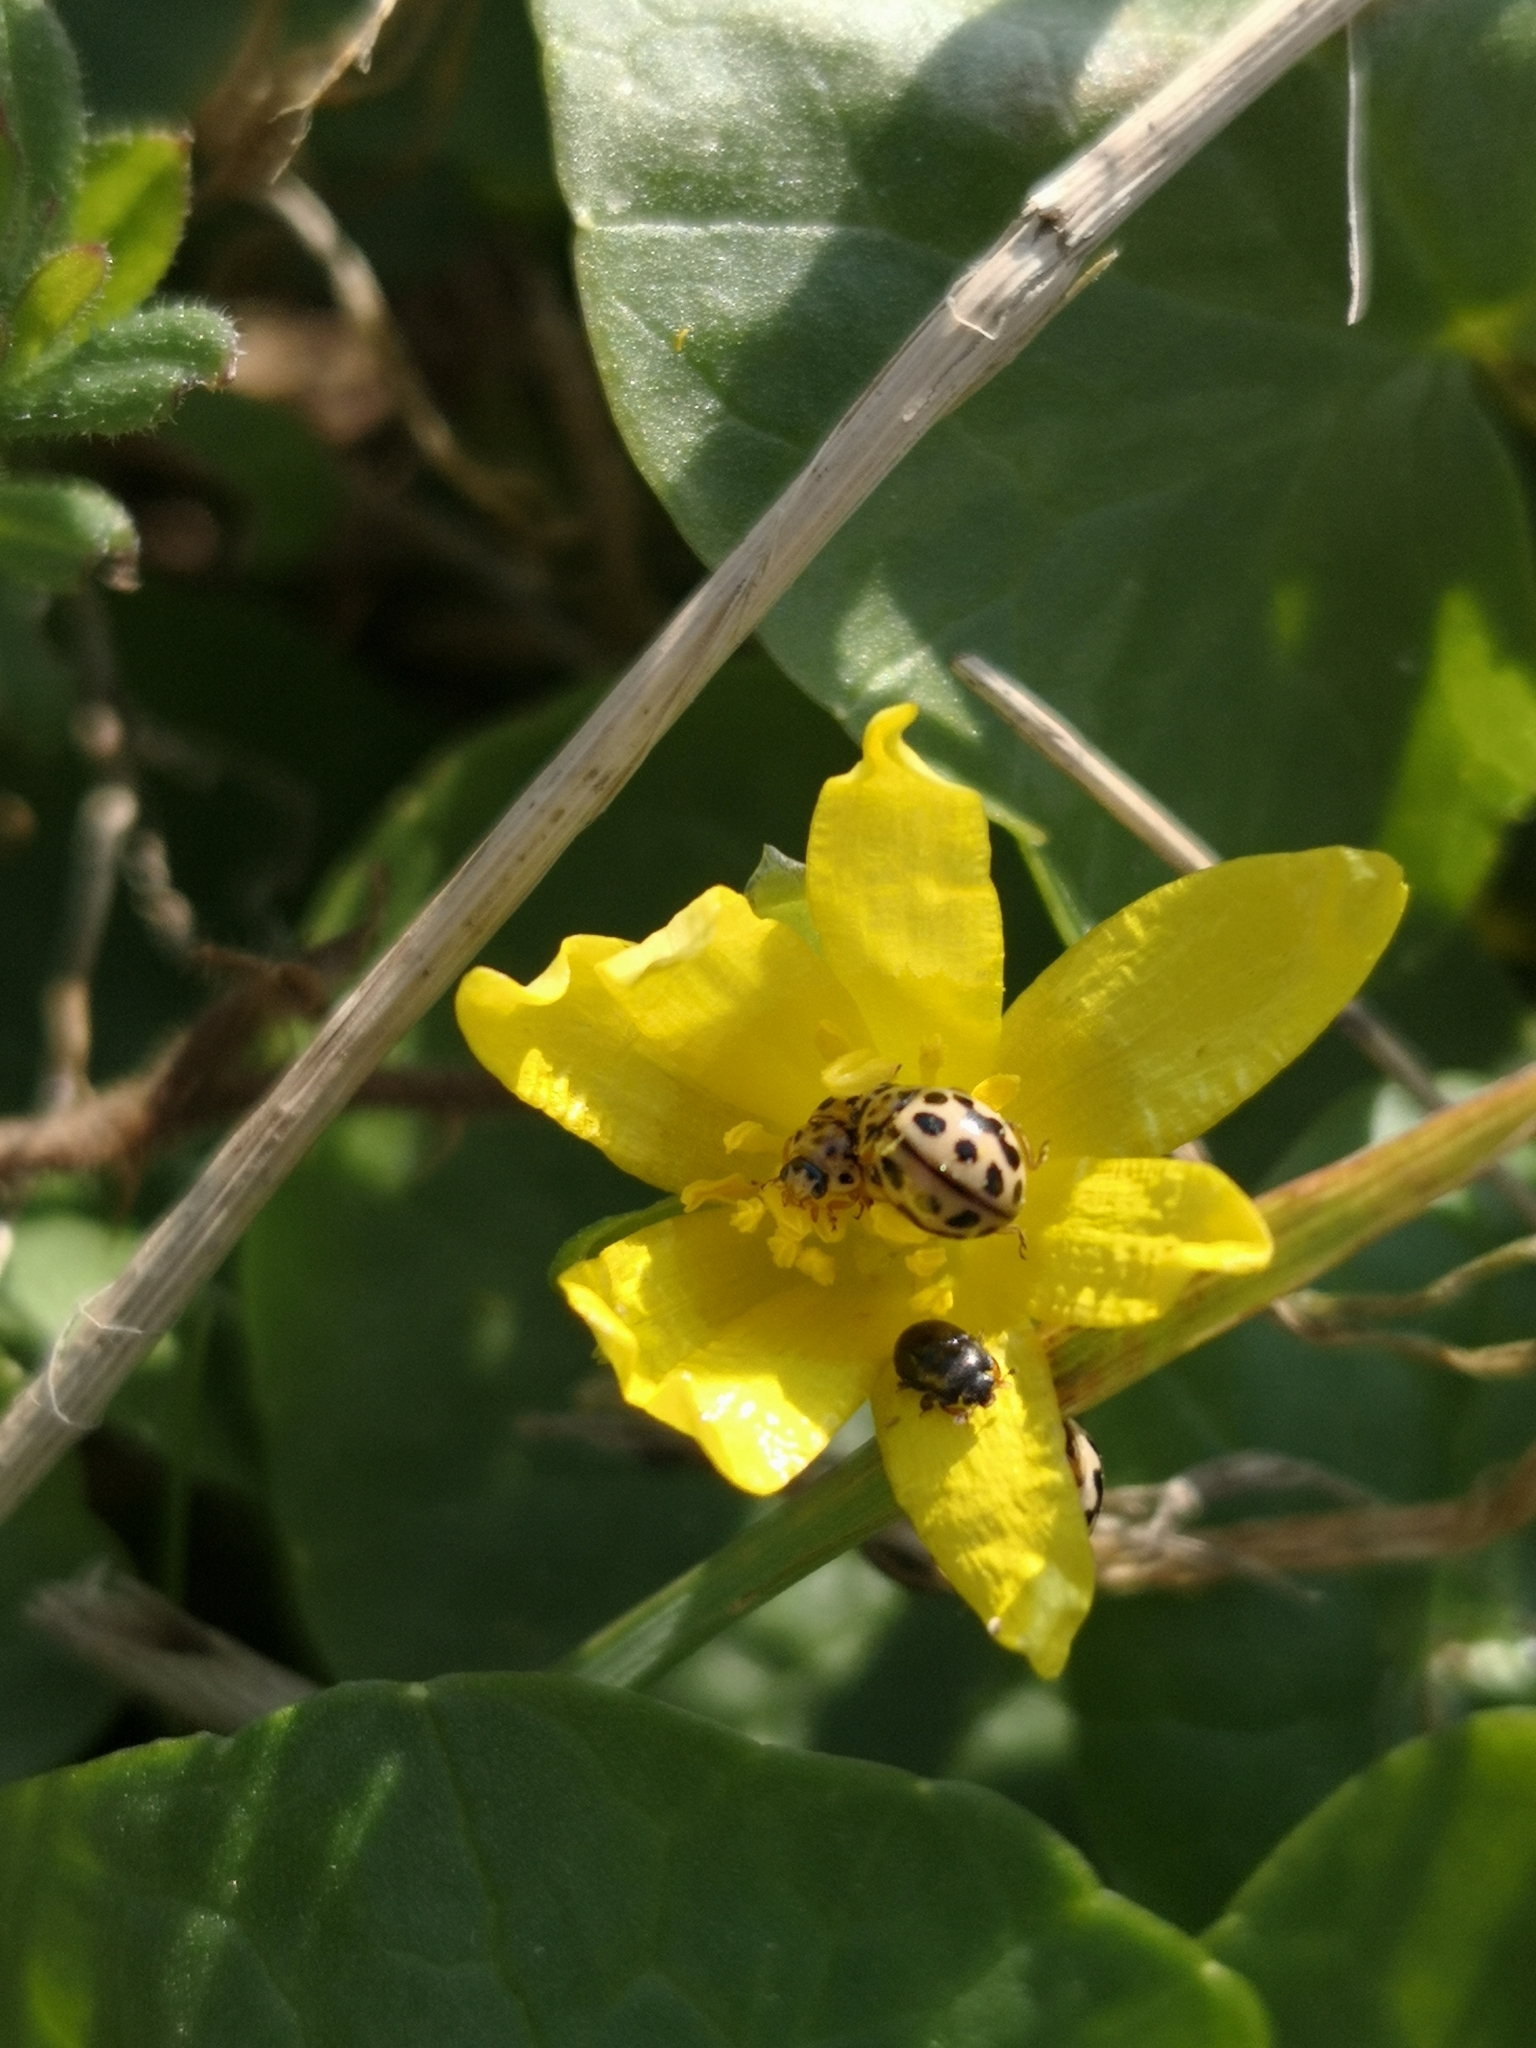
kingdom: Animalia
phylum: Arthropoda
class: Insecta
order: Coleoptera
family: Coccinellidae
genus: Tytthaspis
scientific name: Tytthaspis sedecimpunctata
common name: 16-spot ladybird
